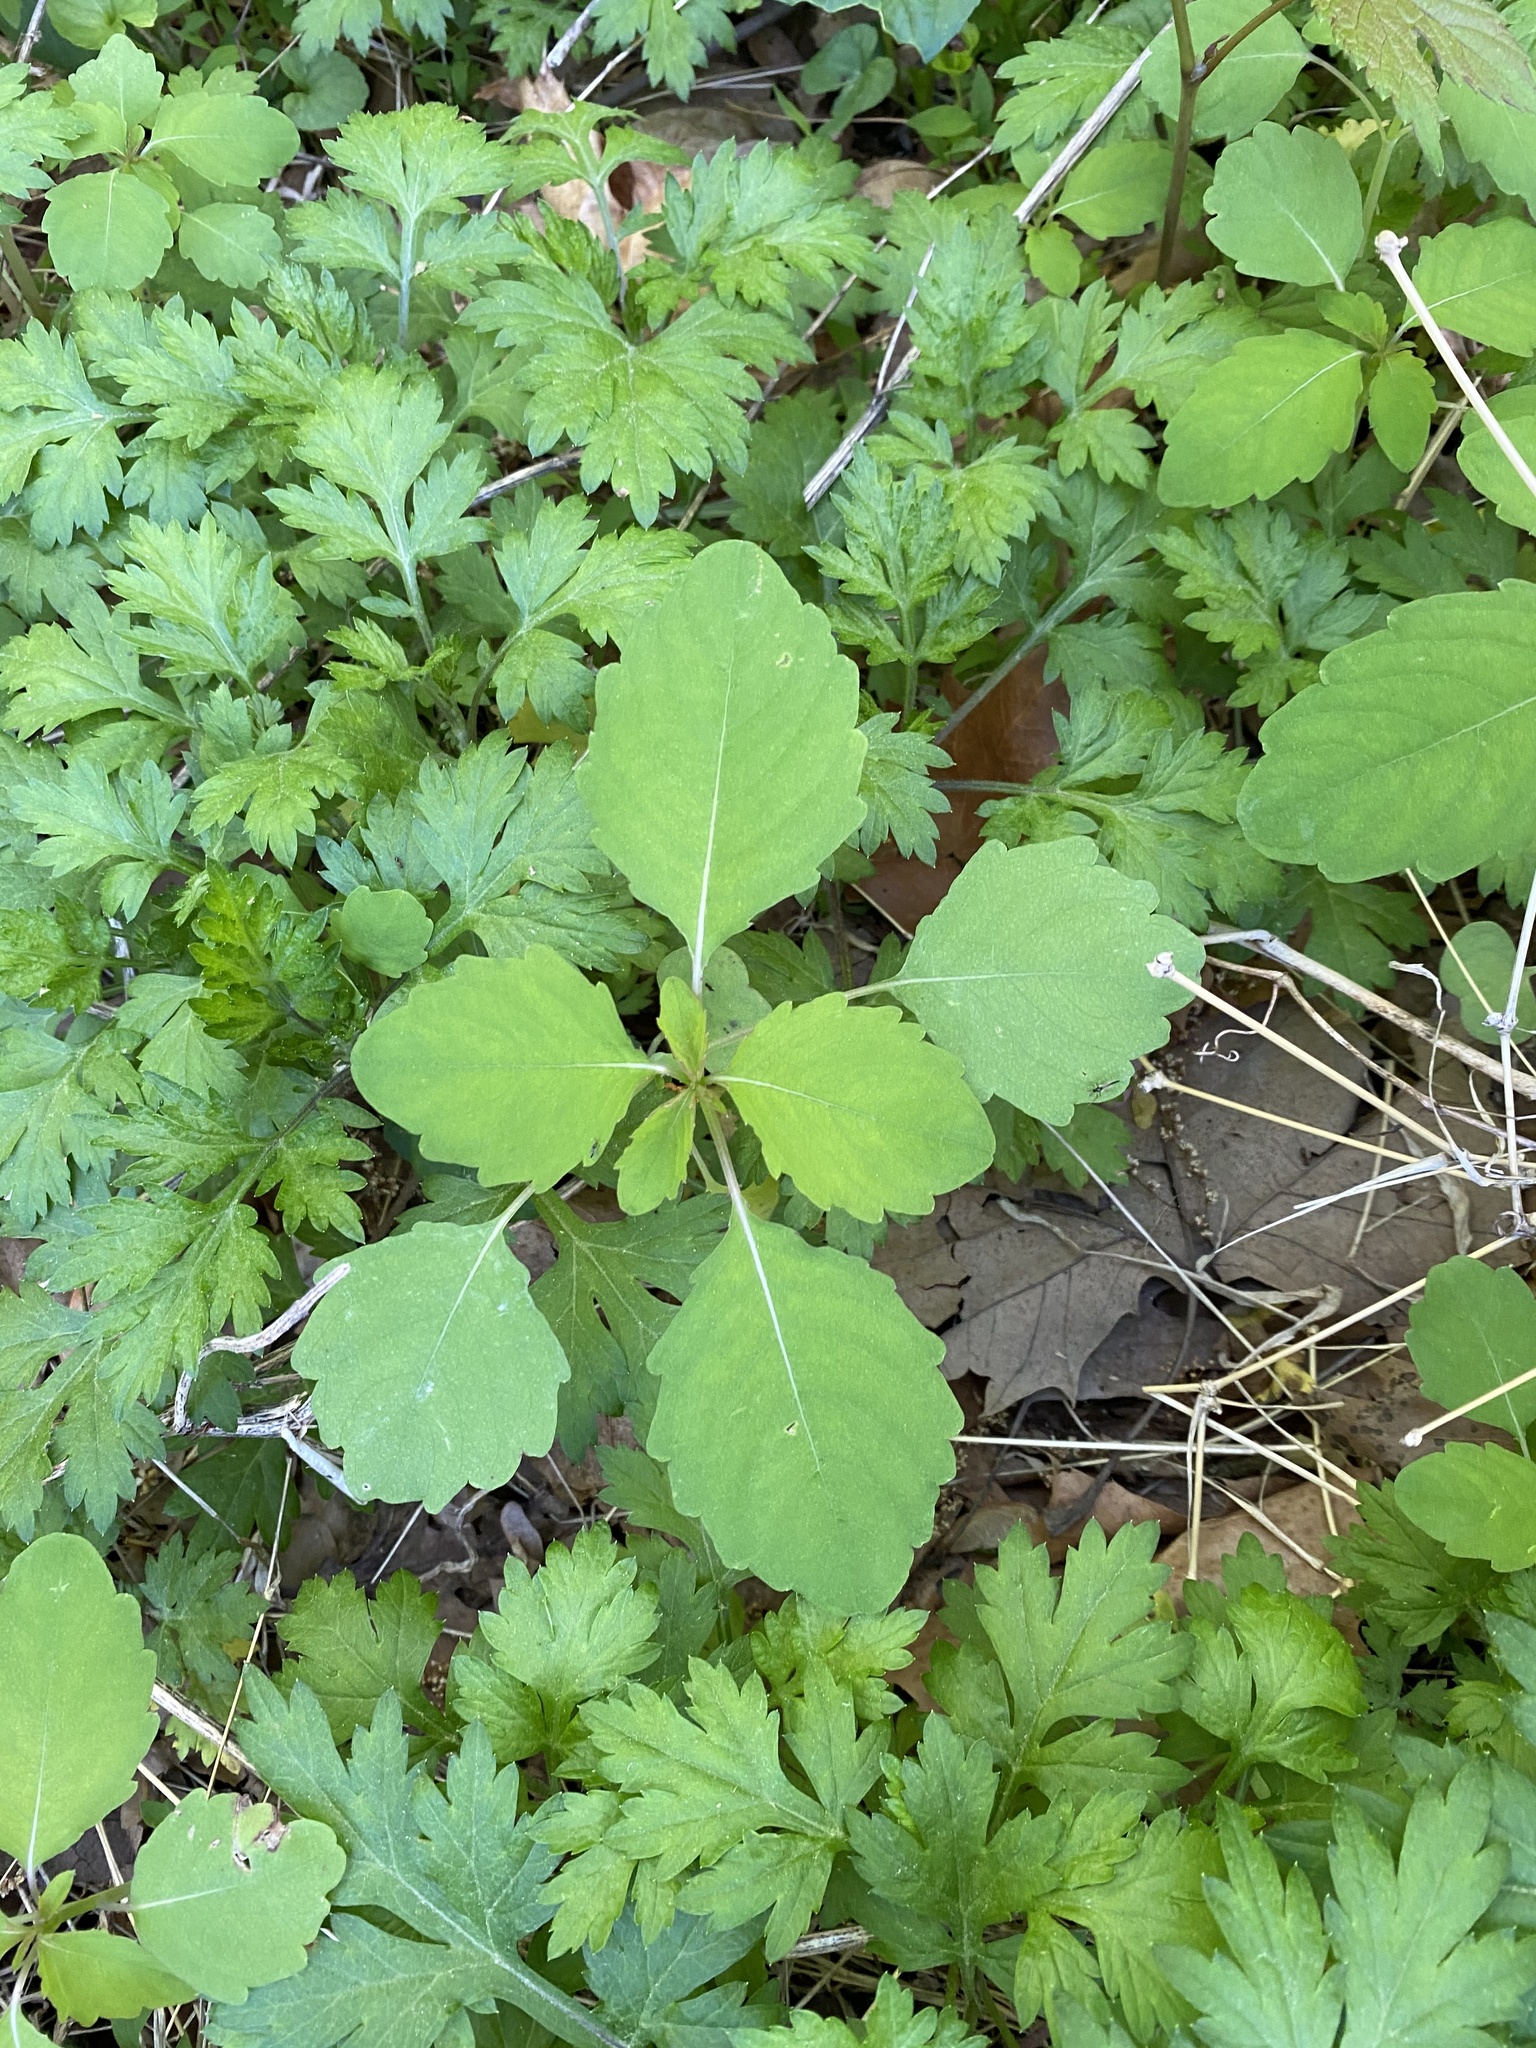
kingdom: Plantae
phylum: Tracheophyta
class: Magnoliopsida
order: Ericales
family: Balsaminaceae
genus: Impatiens
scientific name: Impatiens capensis
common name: Orange balsam
